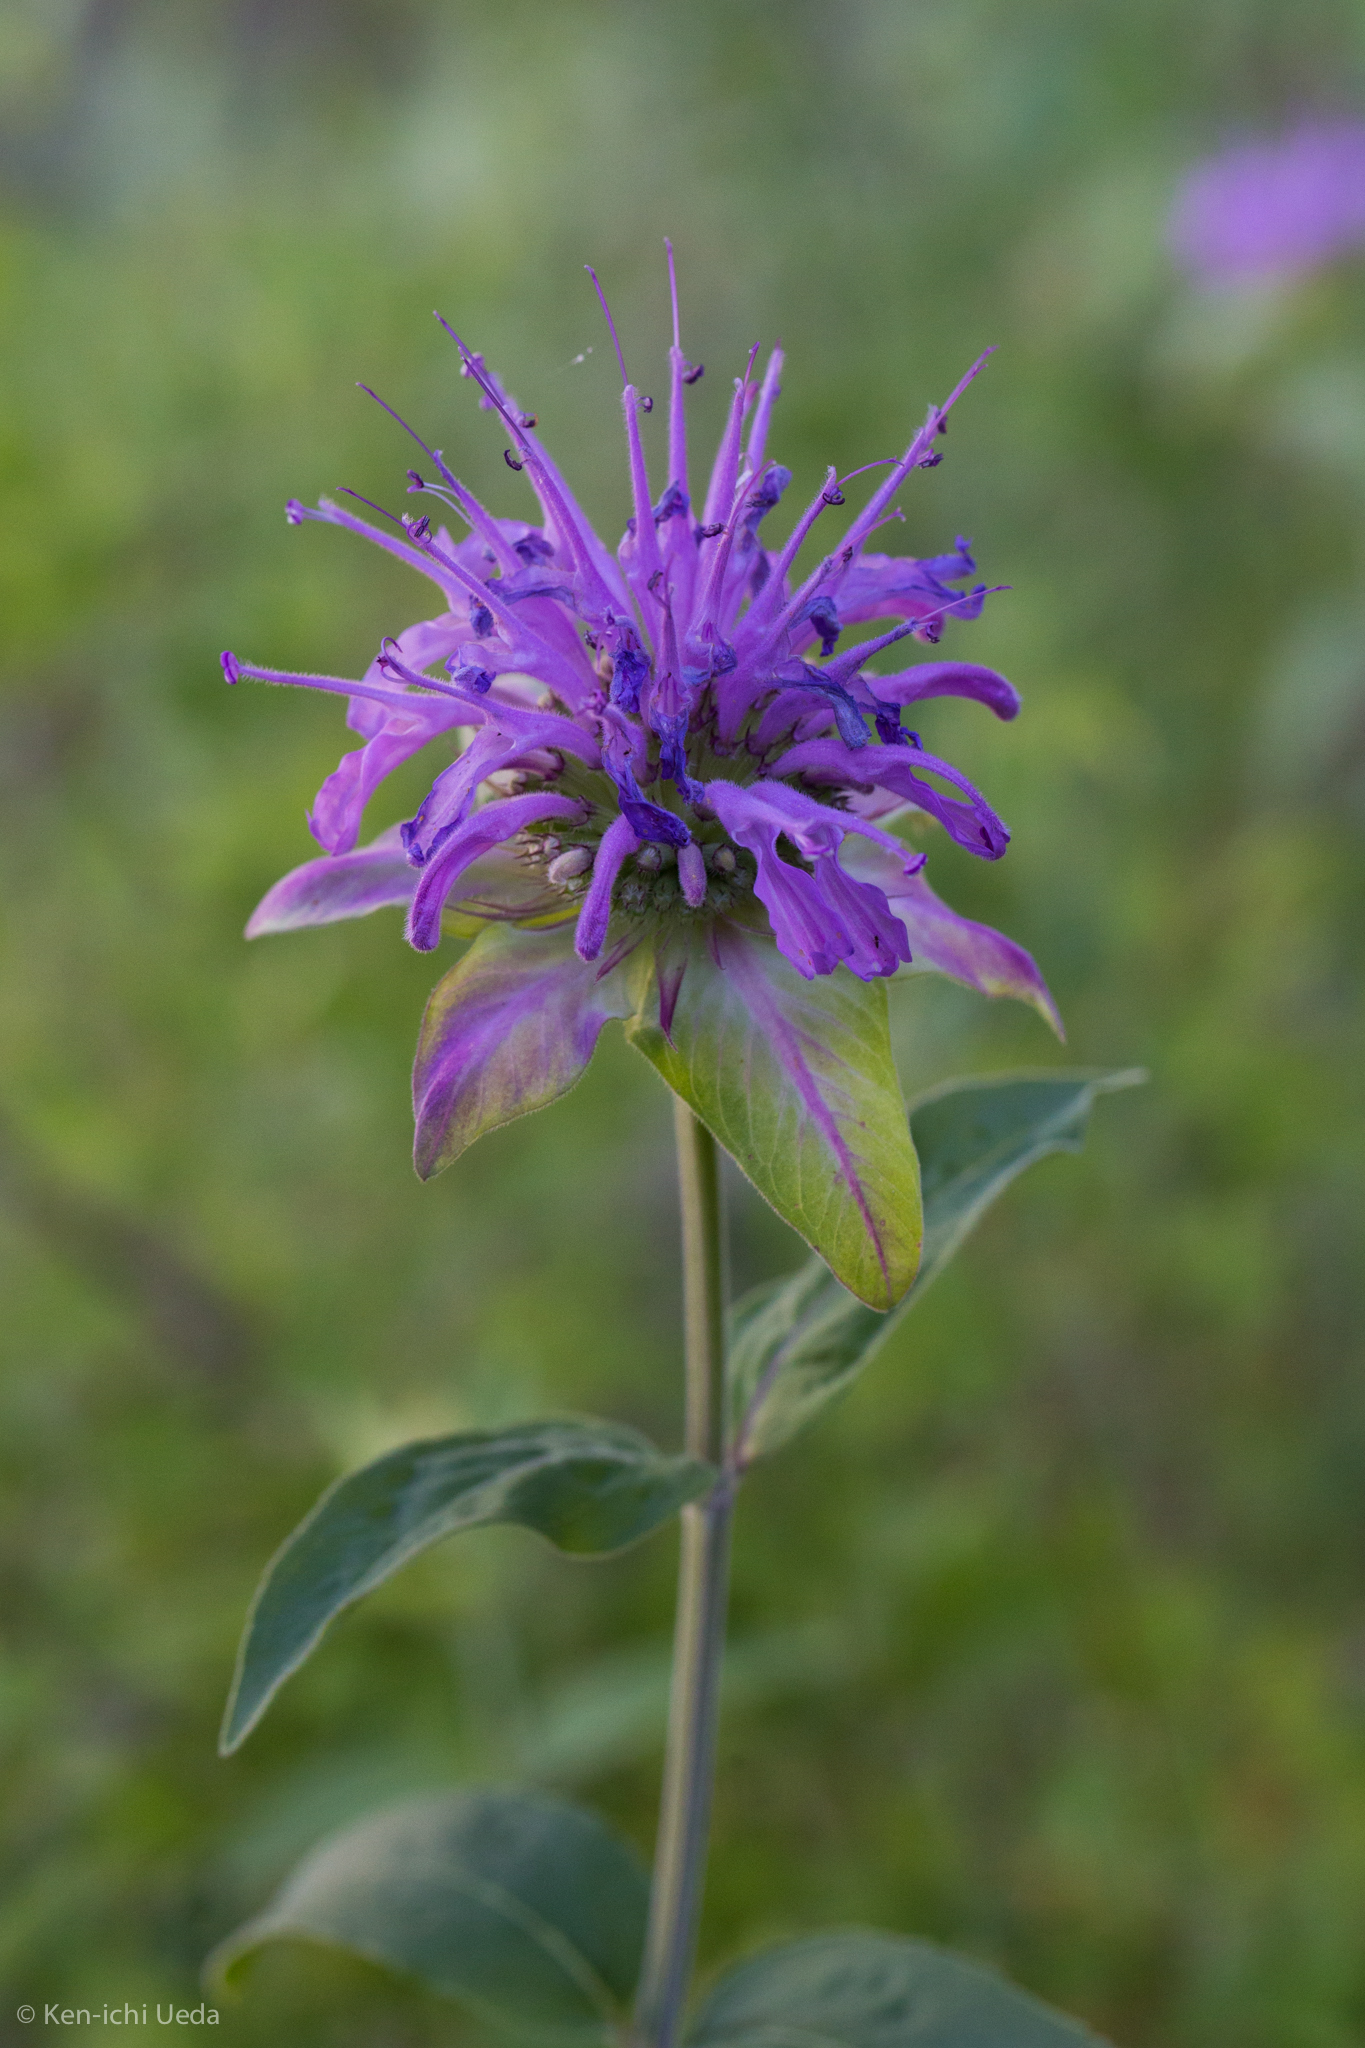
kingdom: Plantae
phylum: Tracheophyta
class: Magnoliopsida
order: Lamiales
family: Lamiaceae
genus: Monarda
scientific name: Monarda fistulosa
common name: Purple beebalm
